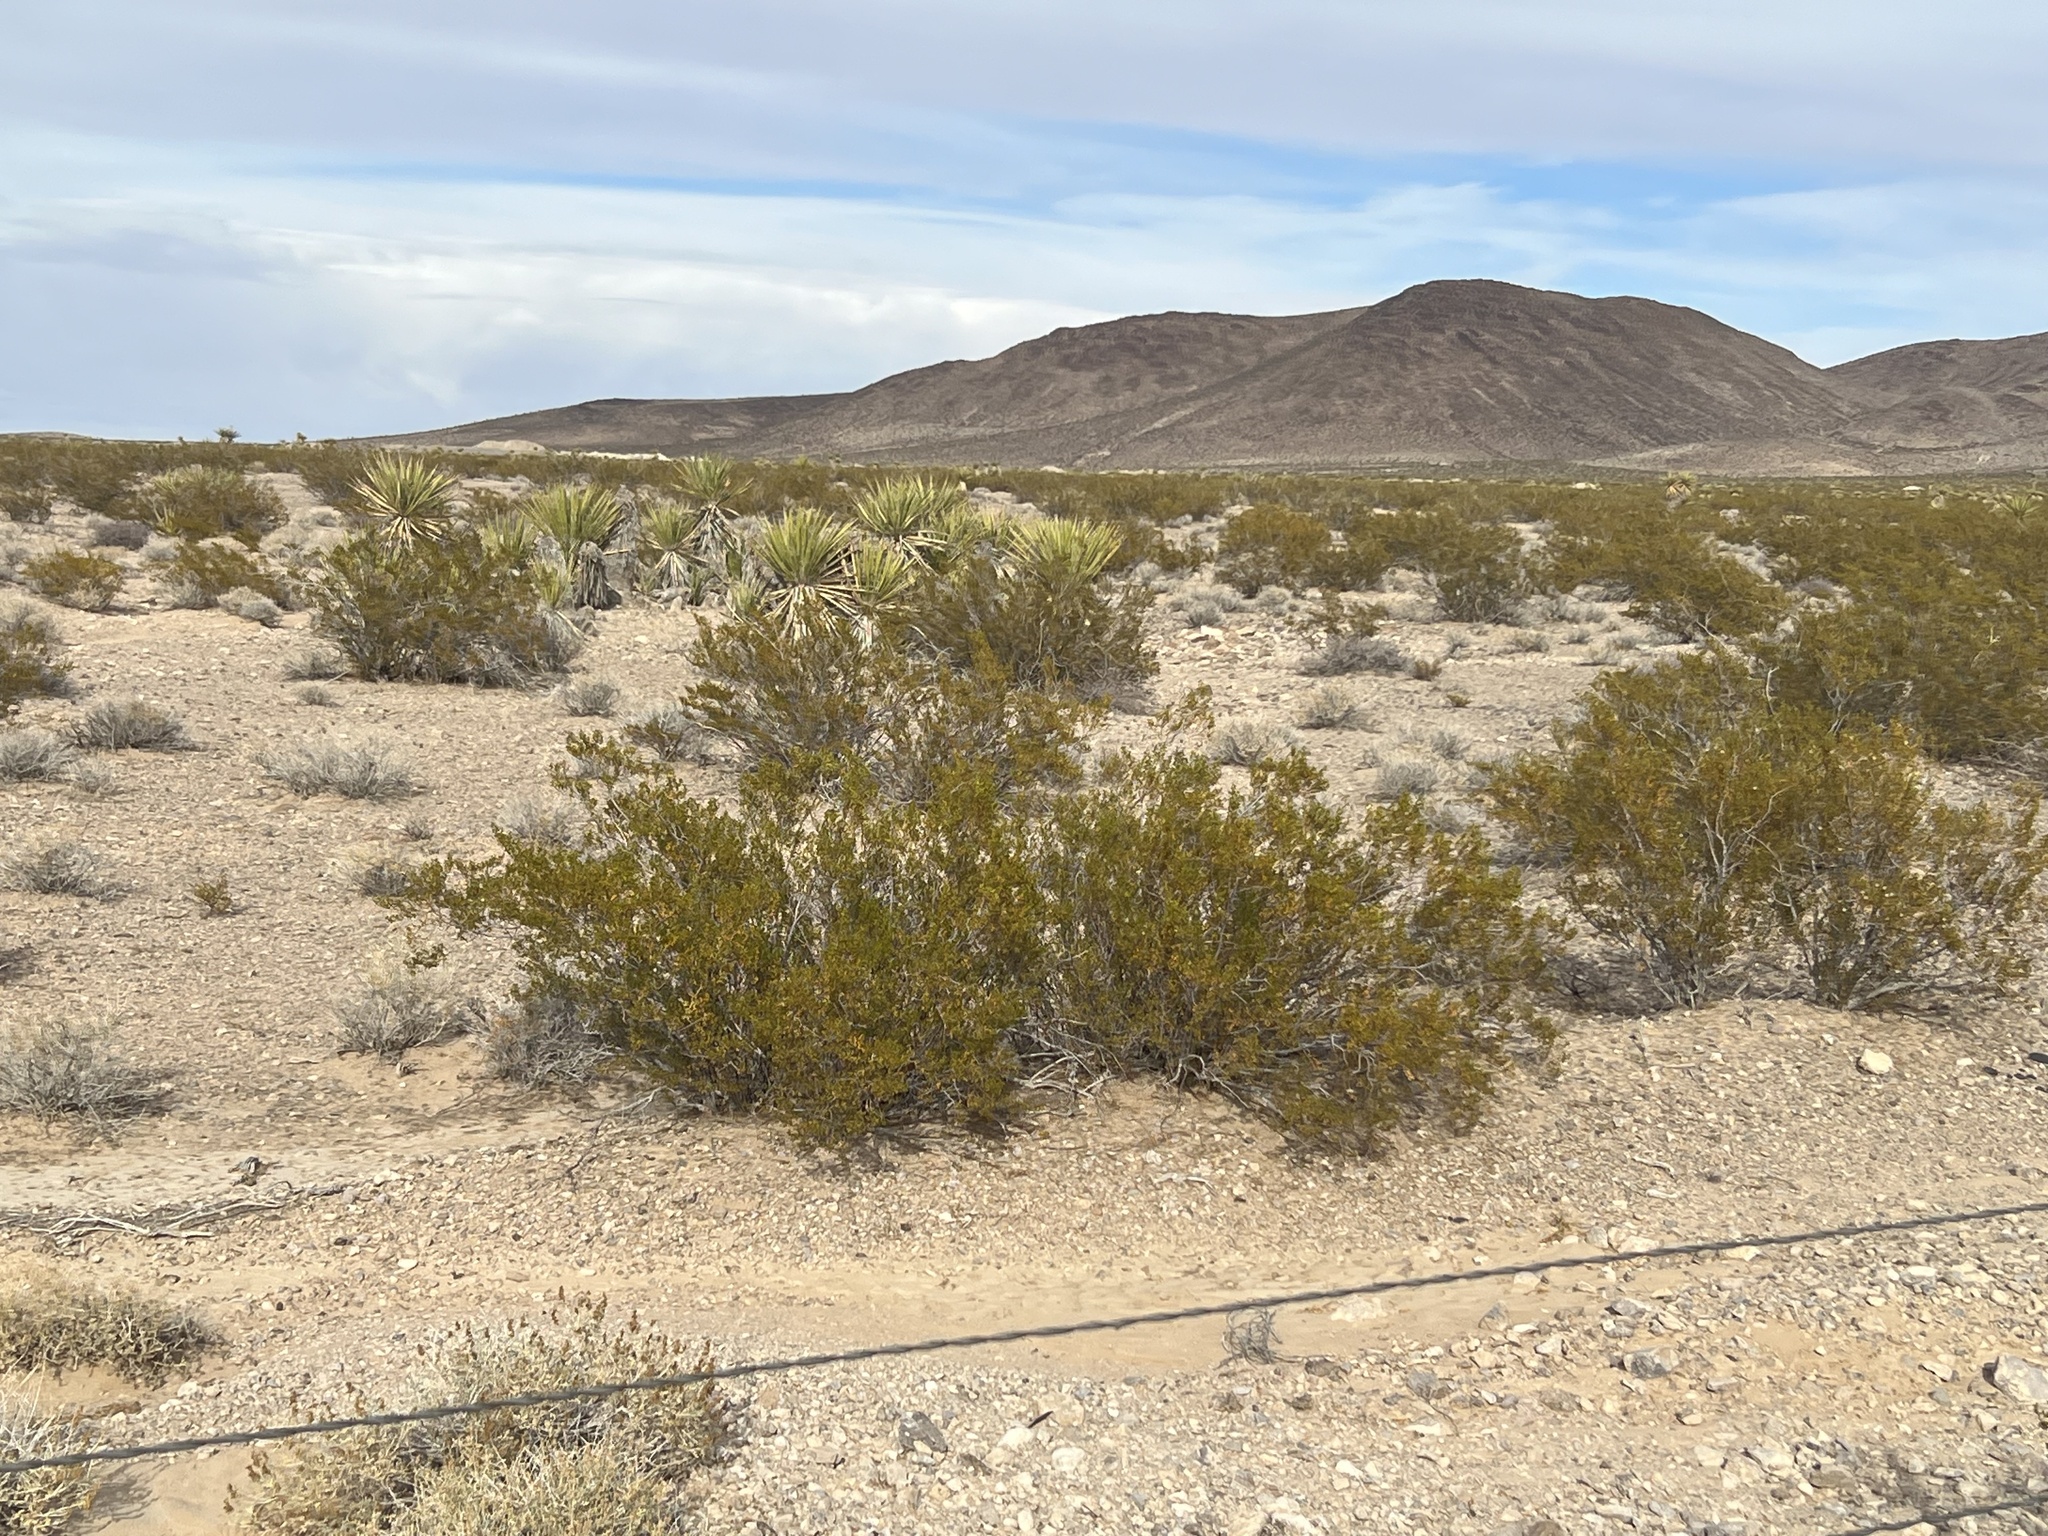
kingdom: Plantae
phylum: Tracheophyta
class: Magnoliopsida
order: Zygophyllales
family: Zygophyllaceae
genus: Larrea
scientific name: Larrea tridentata
